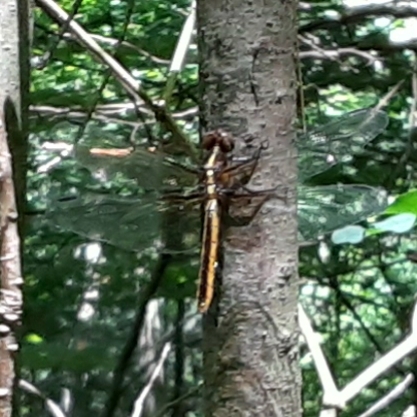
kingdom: Animalia
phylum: Arthropoda
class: Insecta
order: Odonata
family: Libellulidae
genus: Libellula
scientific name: Libellula luctuosa
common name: Widow skimmer
